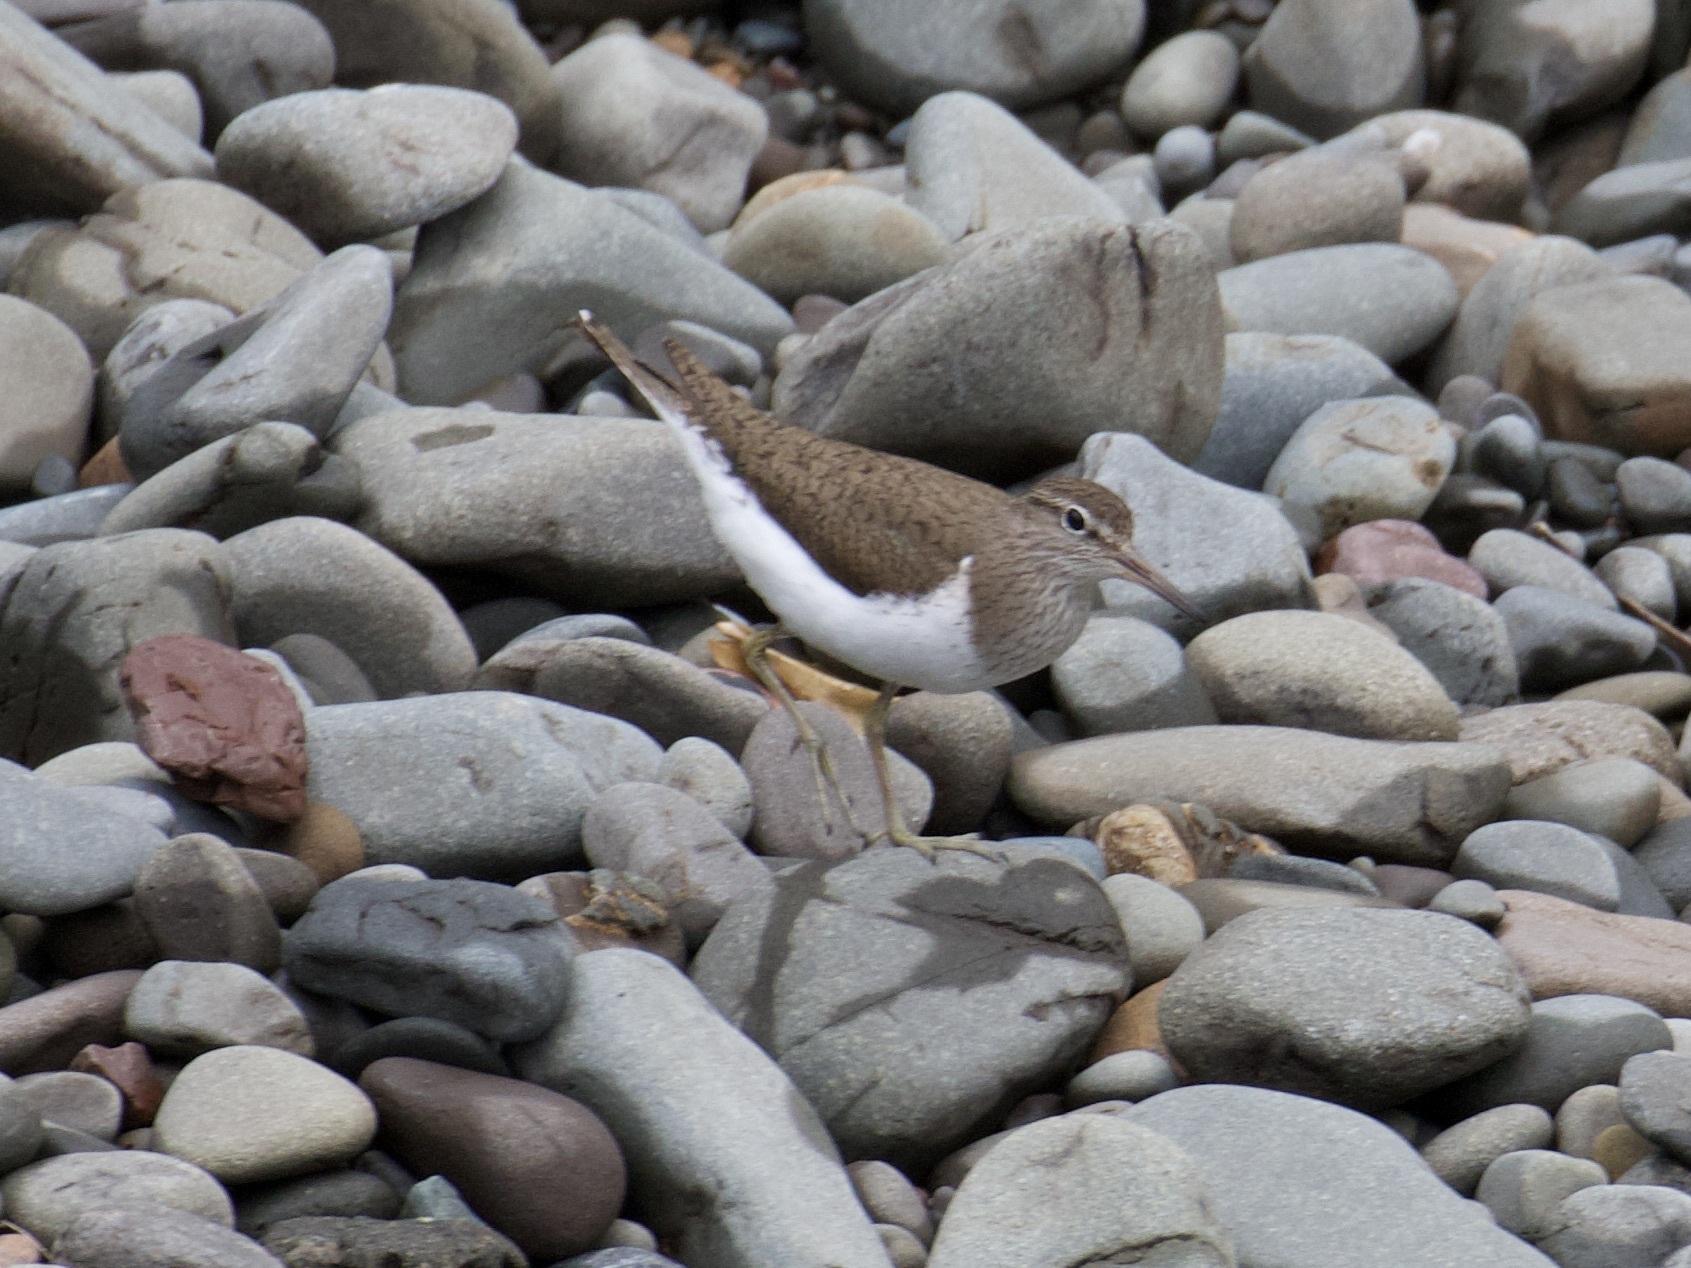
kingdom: Animalia
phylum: Chordata
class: Aves
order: Charadriiformes
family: Scolopacidae
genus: Actitis
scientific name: Actitis hypoleucos
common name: Common sandpiper
